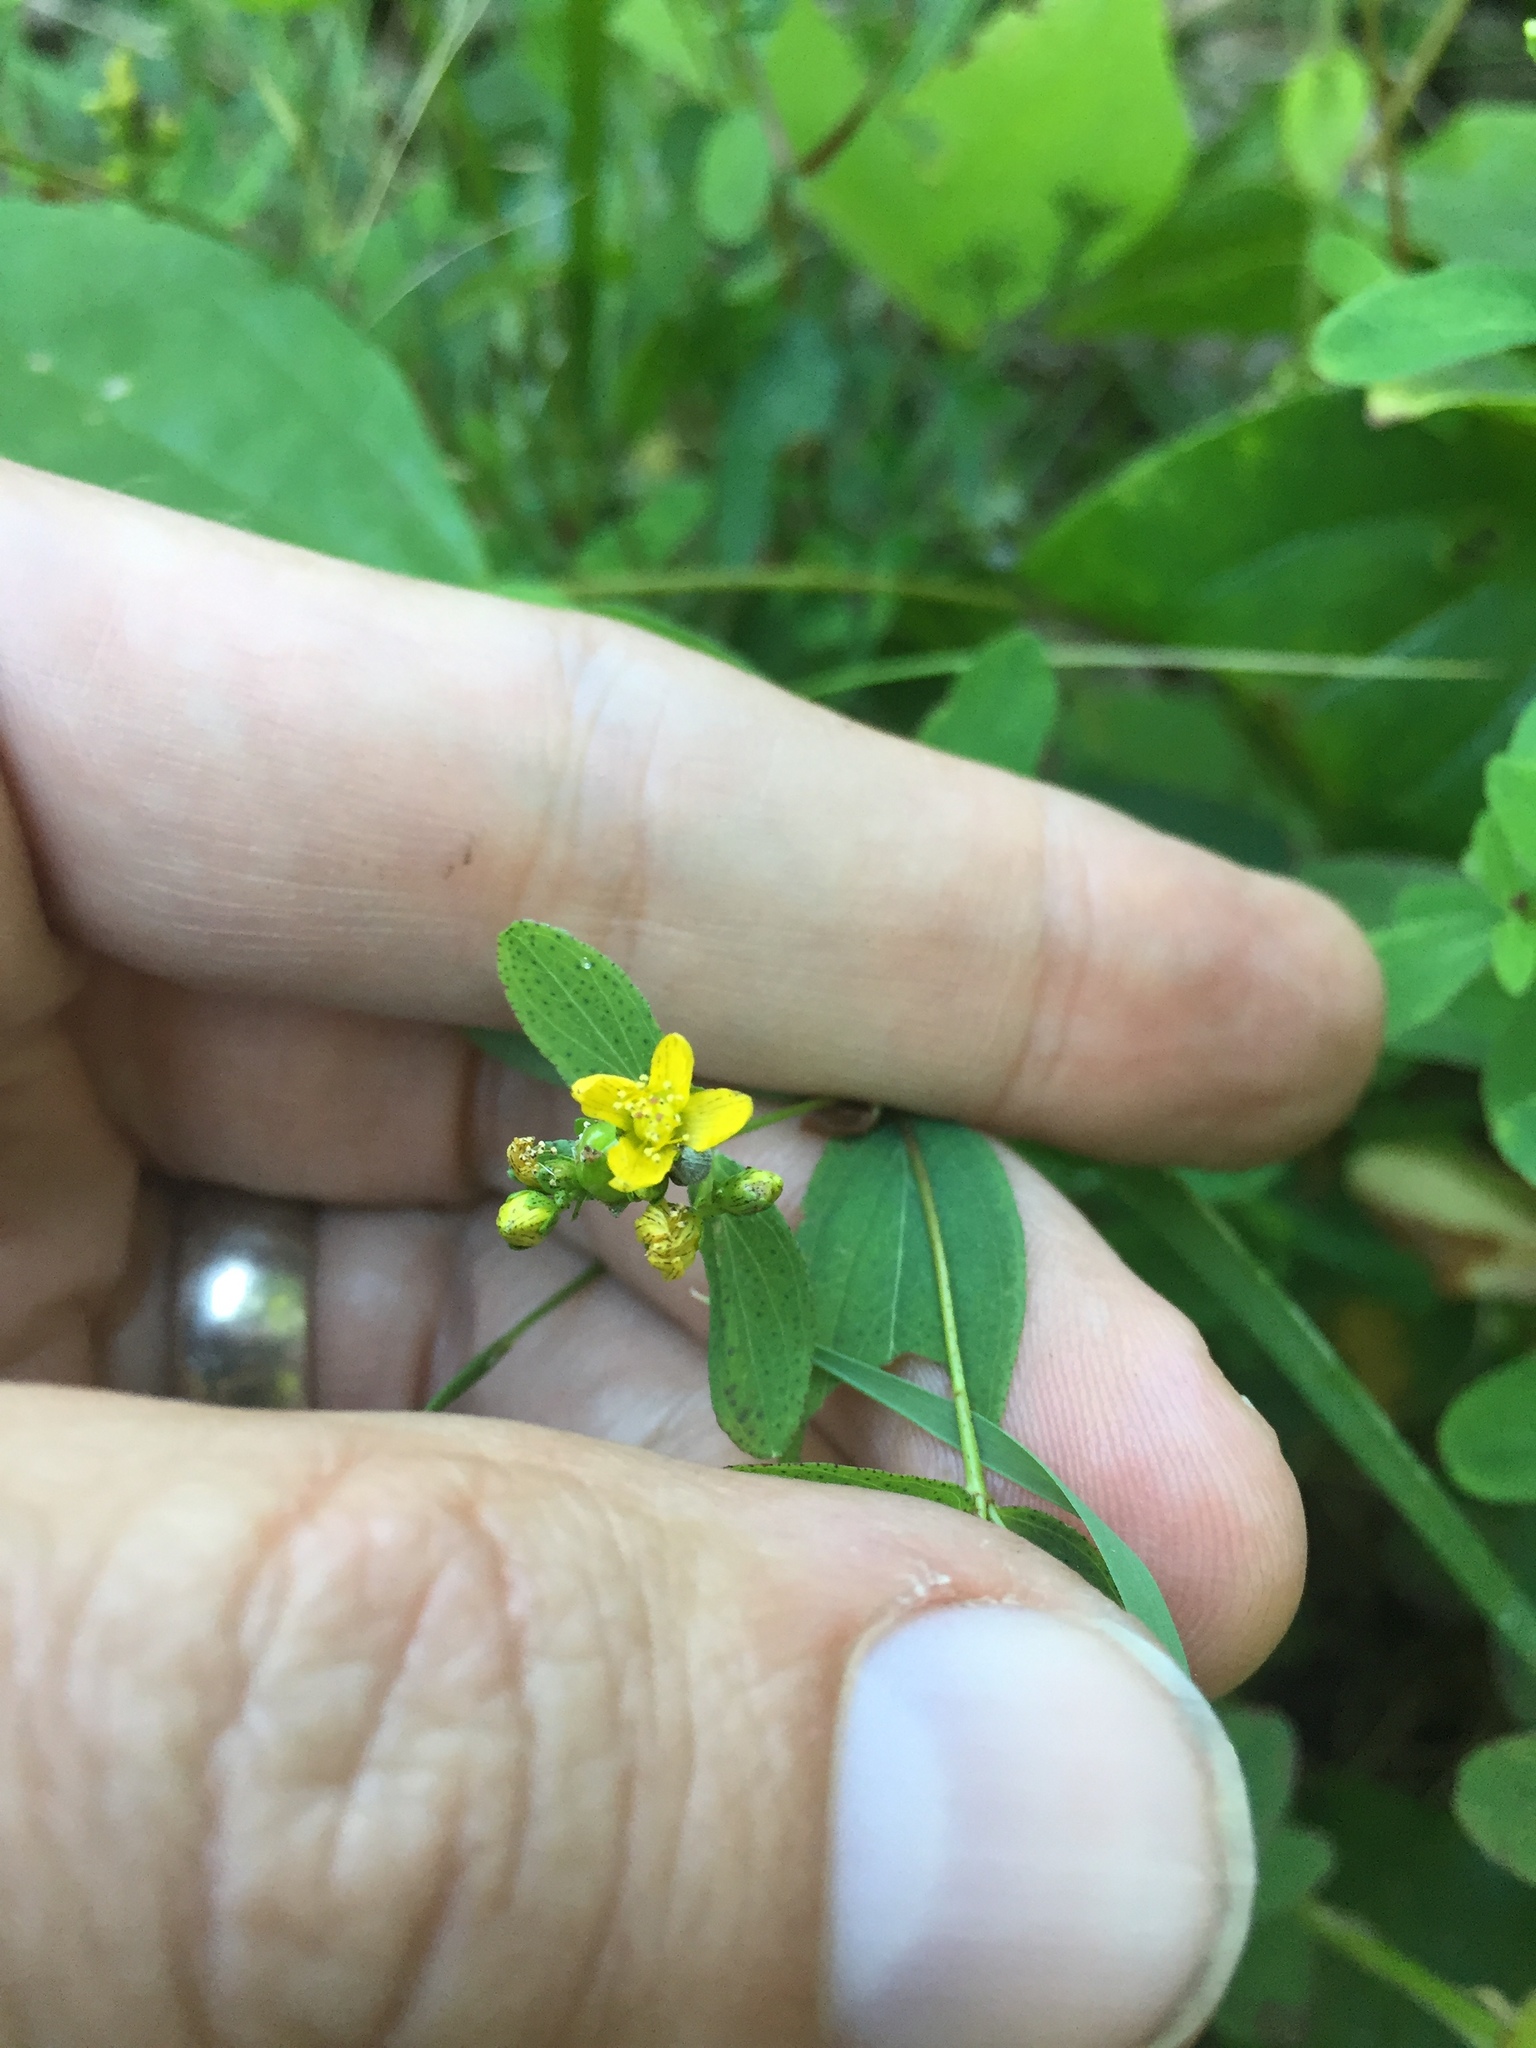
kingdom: Plantae
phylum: Tracheophyta
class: Magnoliopsida
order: Malpighiales
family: Hypericaceae
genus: Hypericum
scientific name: Hypericum mutilum
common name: Dwarf st. john's-wort
